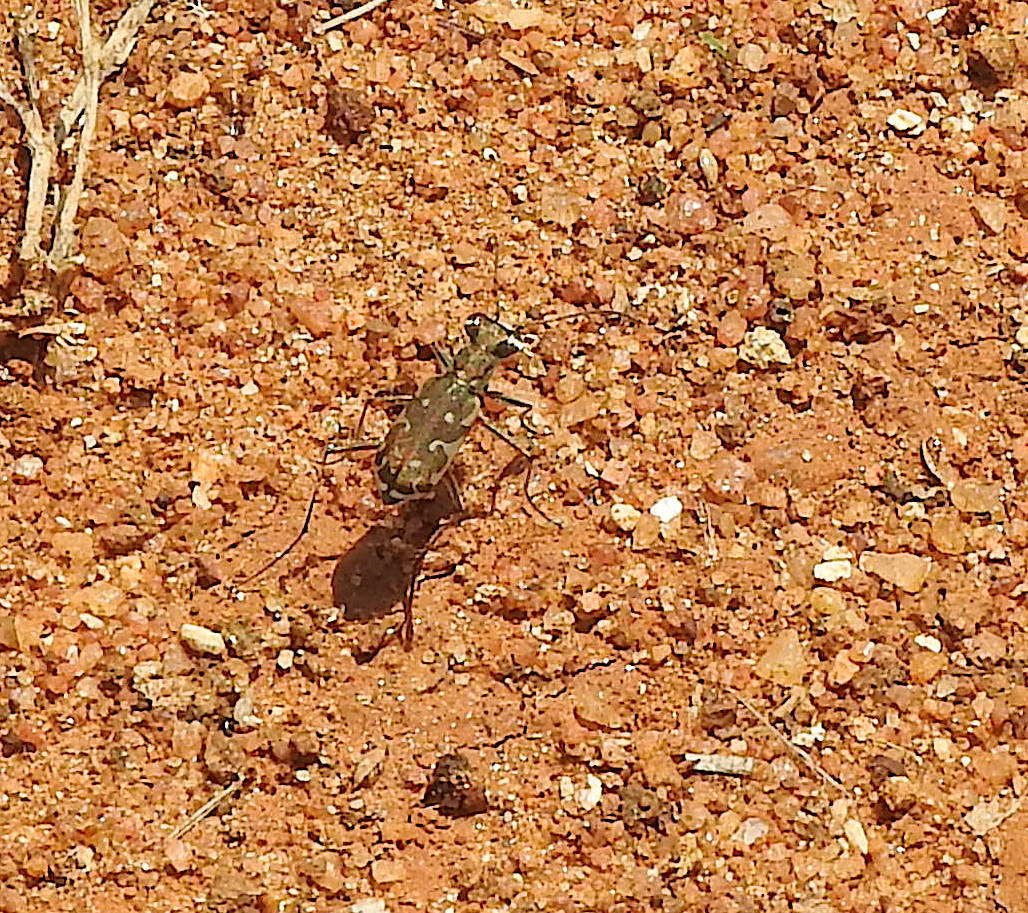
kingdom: Animalia
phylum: Arthropoda
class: Insecta
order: Coleoptera
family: Carabidae
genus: Myriochila
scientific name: Myriochila fastidiosa
